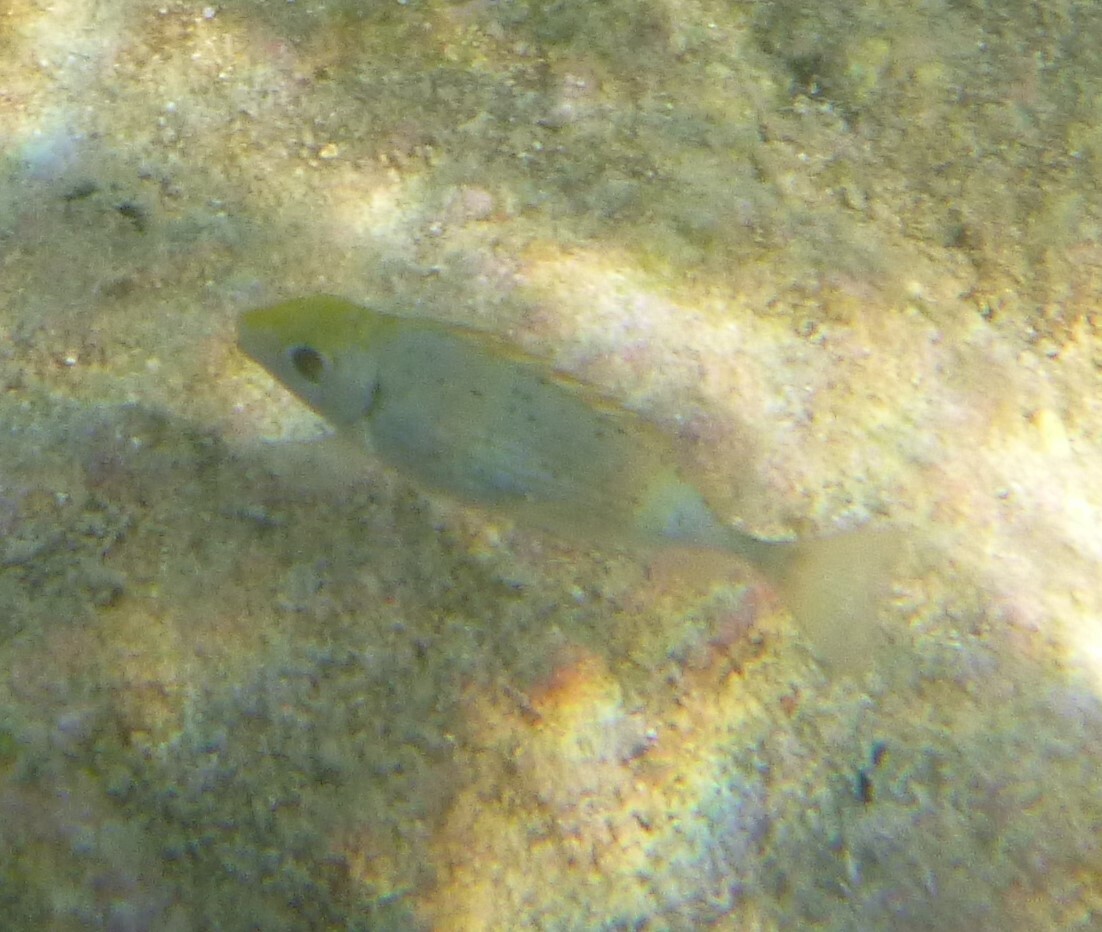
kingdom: Animalia
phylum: Chordata
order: Perciformes
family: Siganidae
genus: Siganus
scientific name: Siganus rivulatus
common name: Marbled spinefoot
